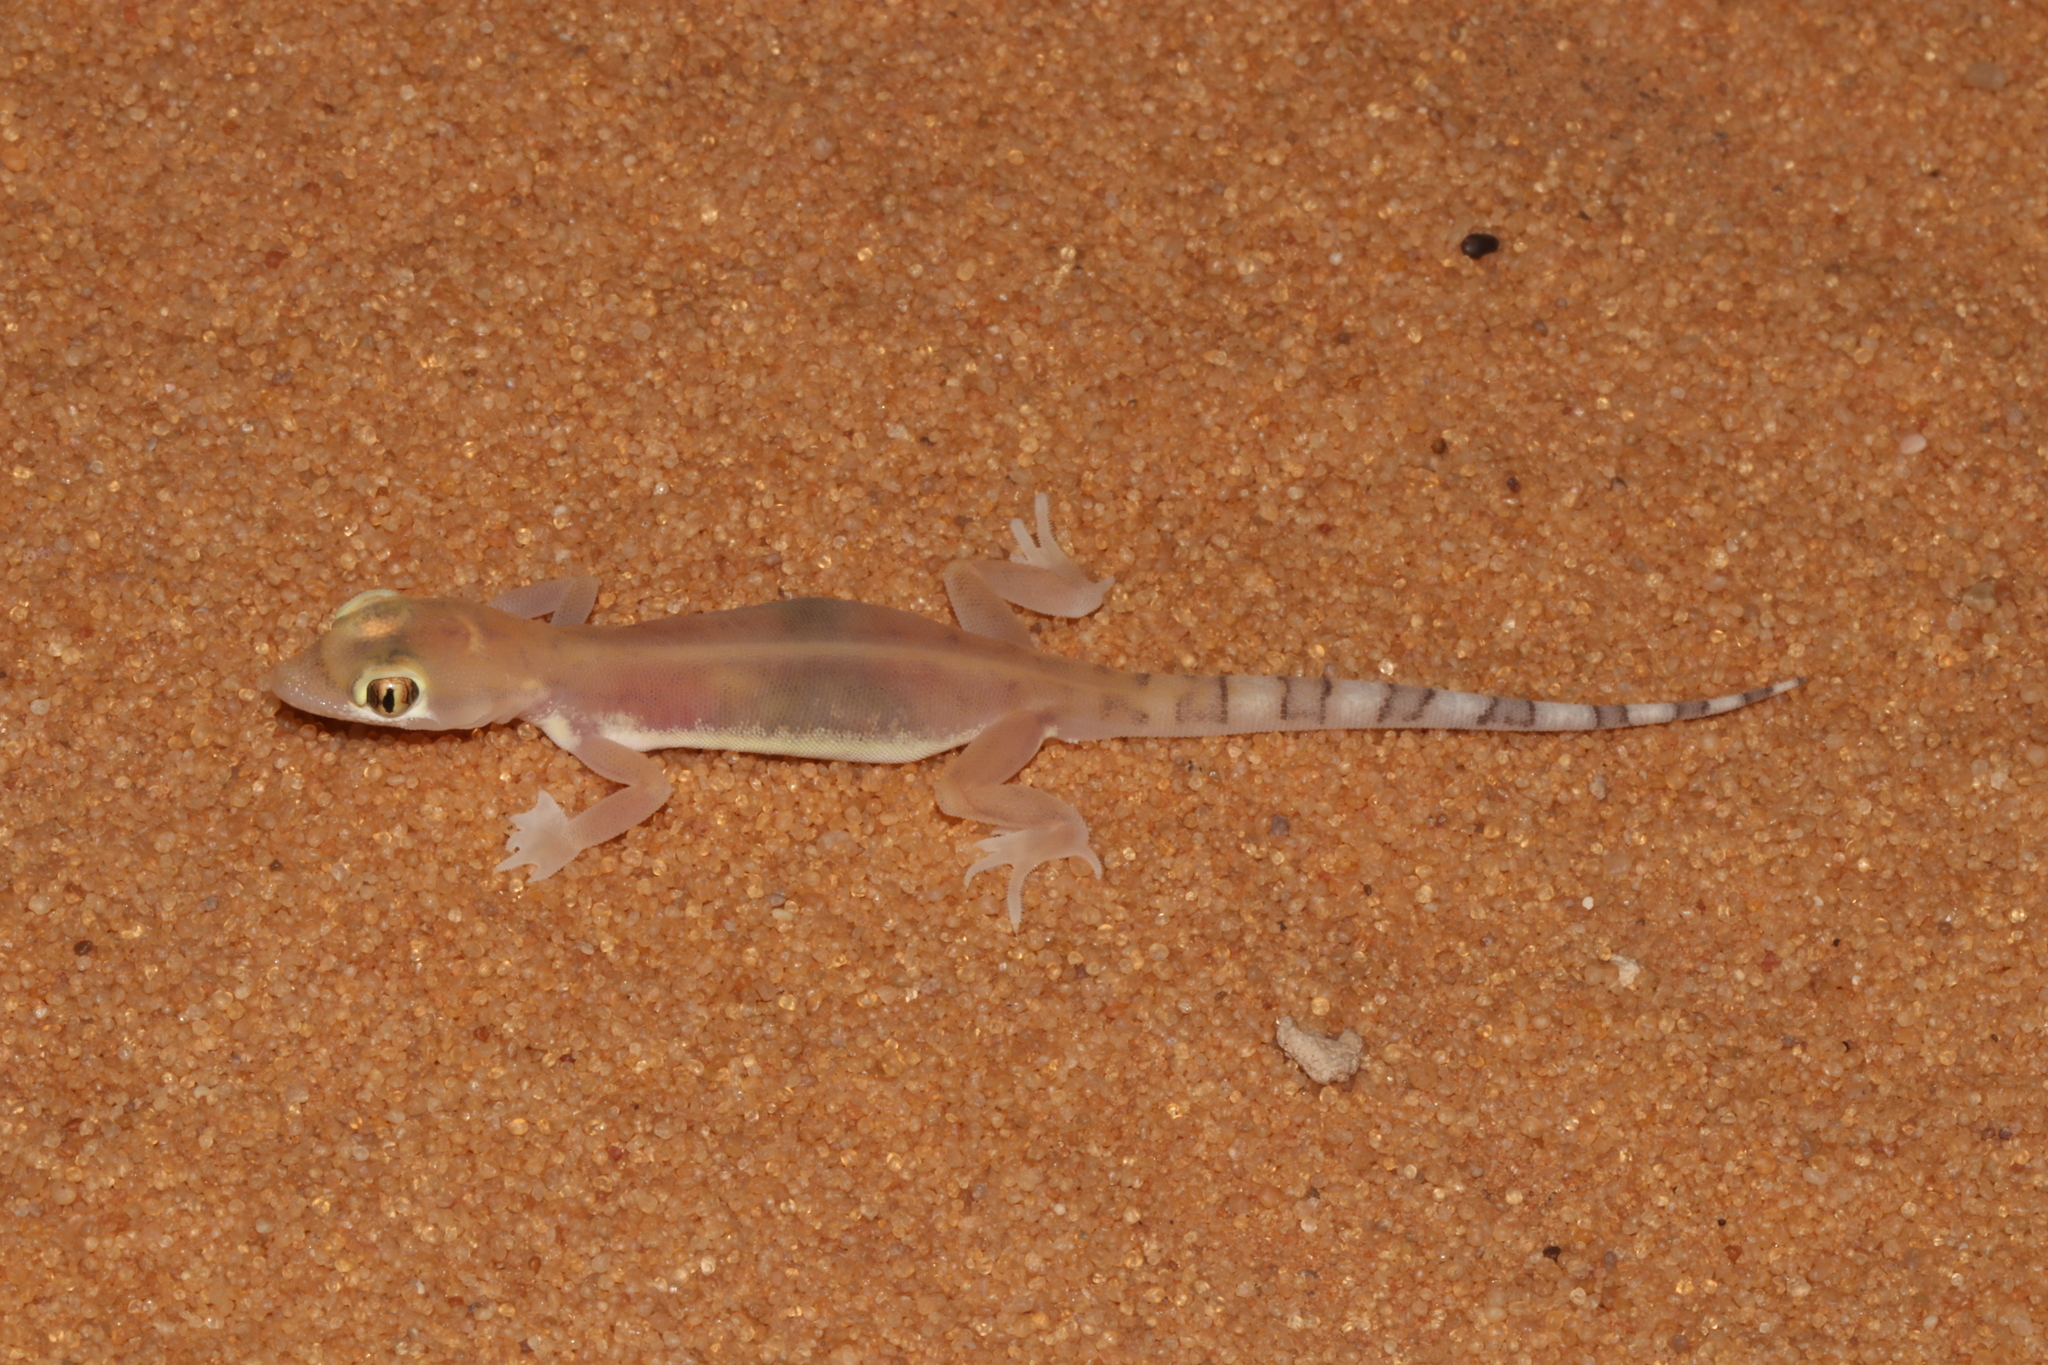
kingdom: Animalia
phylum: Chordata
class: Squamata
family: Gekkonidae
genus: Trigonodactylus
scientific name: Trigonodactylus arabicus
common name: Arabian sand gecko
